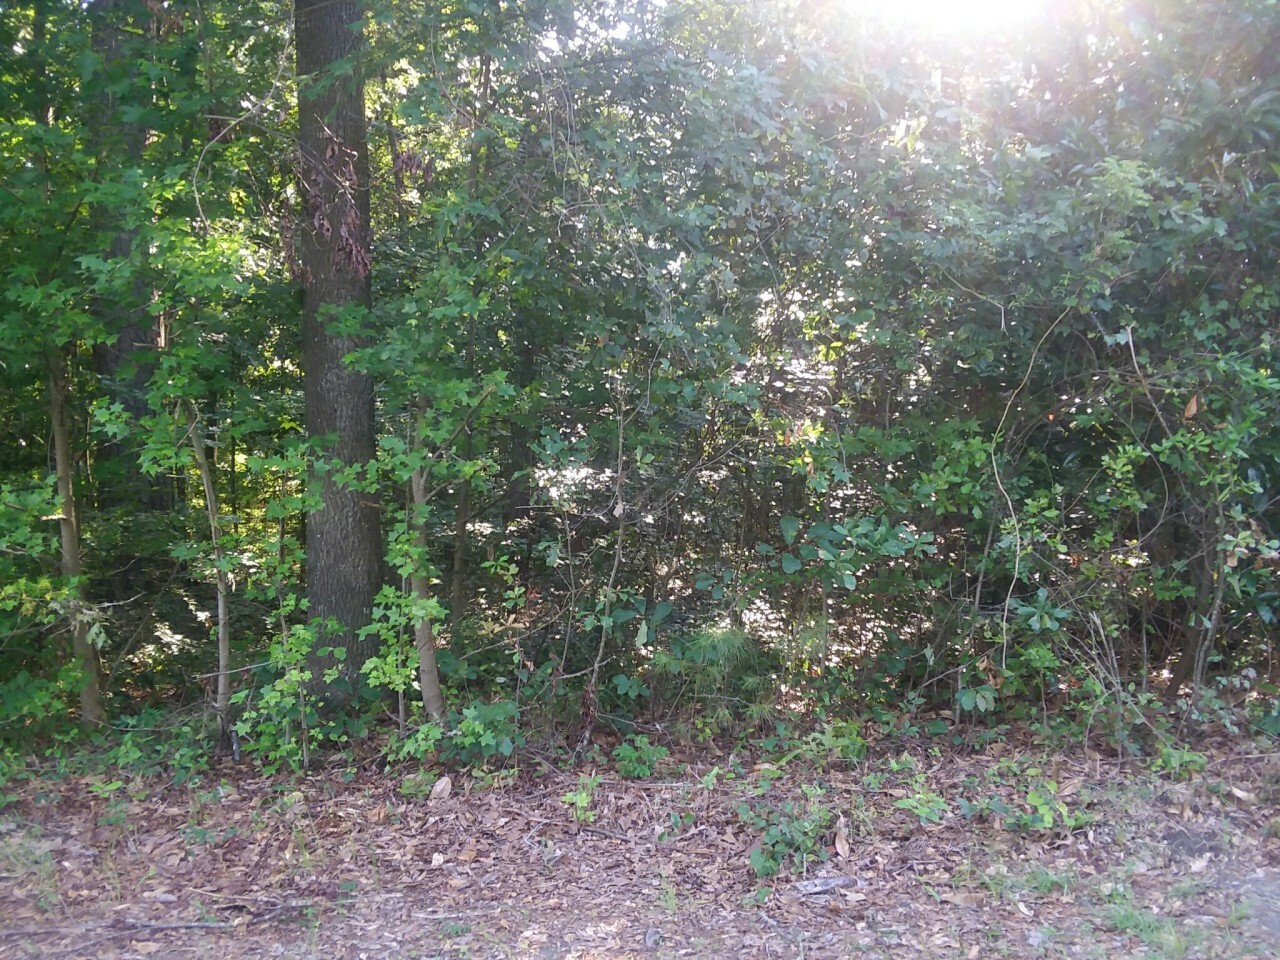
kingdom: Plantae
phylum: Tracheophyta
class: Magnoliopsida
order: Magnoliales
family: Annonaceae
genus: Asimina
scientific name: Asimina parviflora
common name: Dwarf pawpaw
